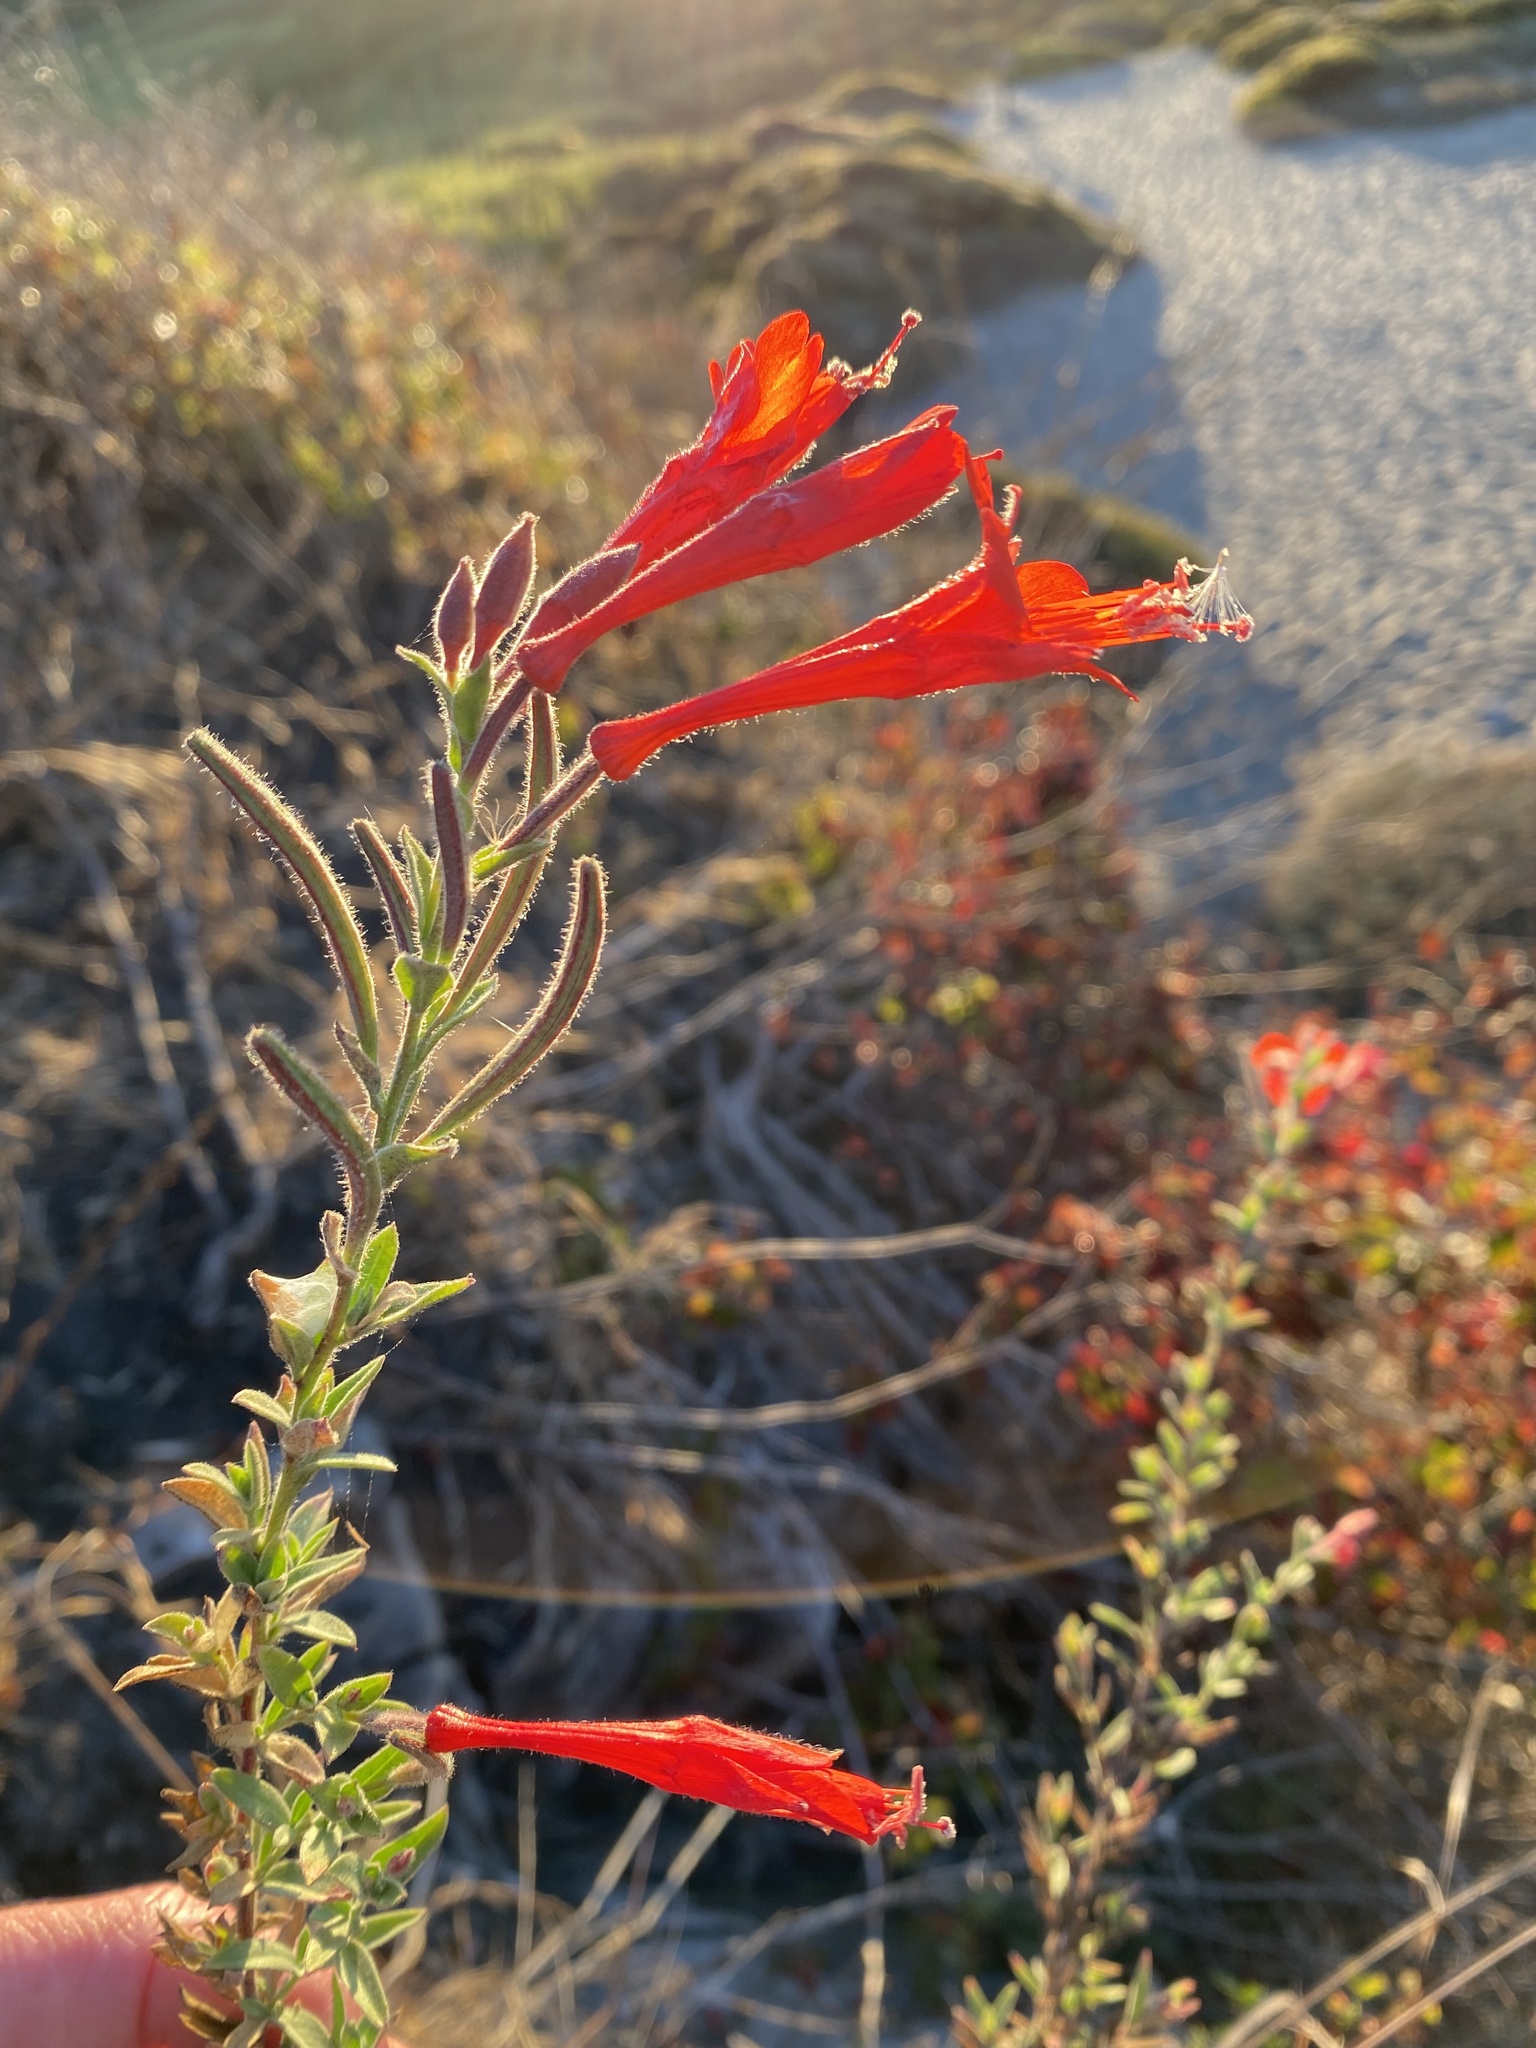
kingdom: Plantae
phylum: Tracheophyta
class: Magnoliopsida
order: Myrtales
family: Onagraceae
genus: Epilobium
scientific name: Epilobium canum
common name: California-fuchsia
